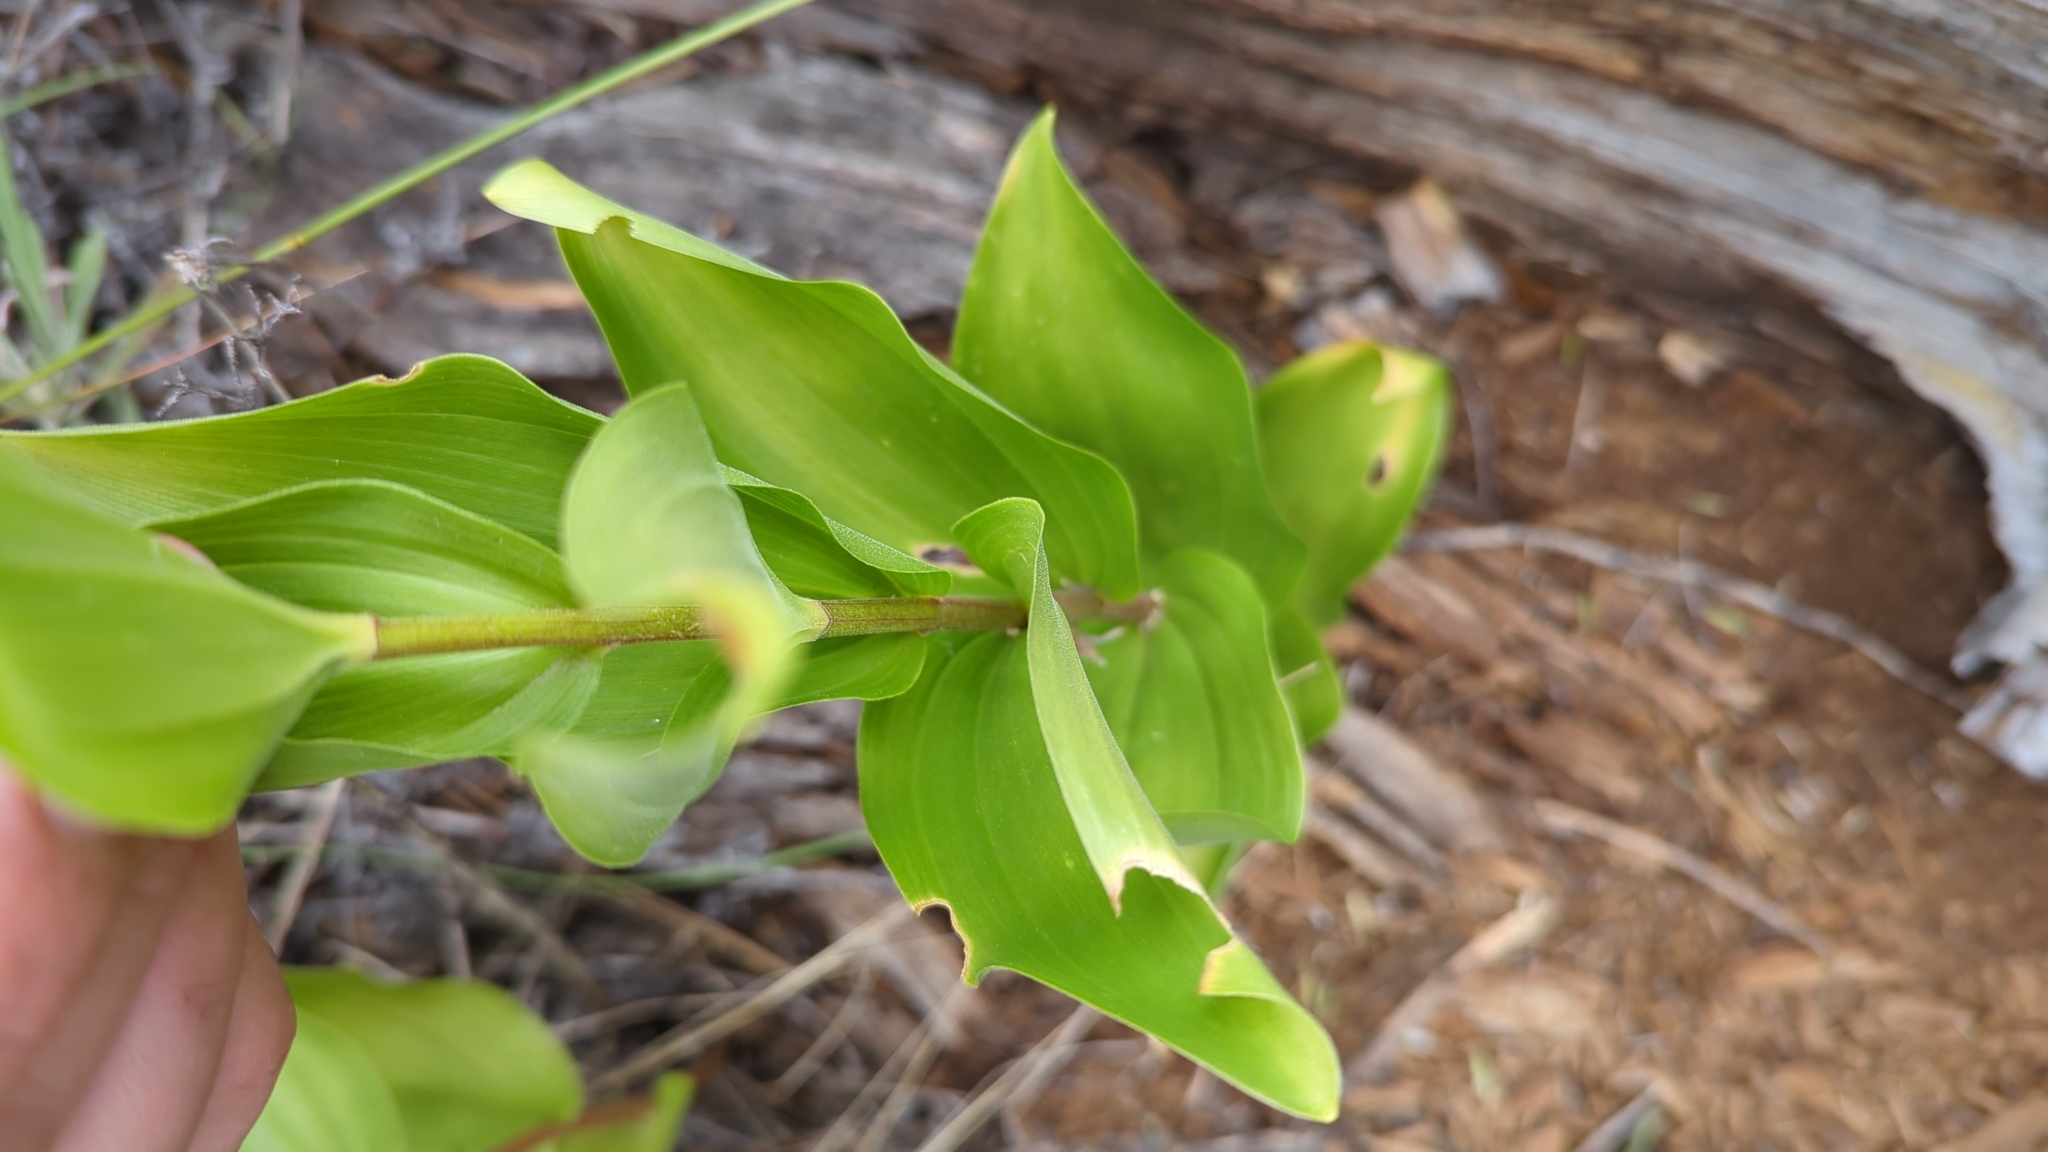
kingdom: Plantae
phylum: Tracheophyta
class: Liliopsida
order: Asparagales
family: Asparagaceae
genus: Maianthemum
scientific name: Maianthemum racemosum
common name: False spikenard
